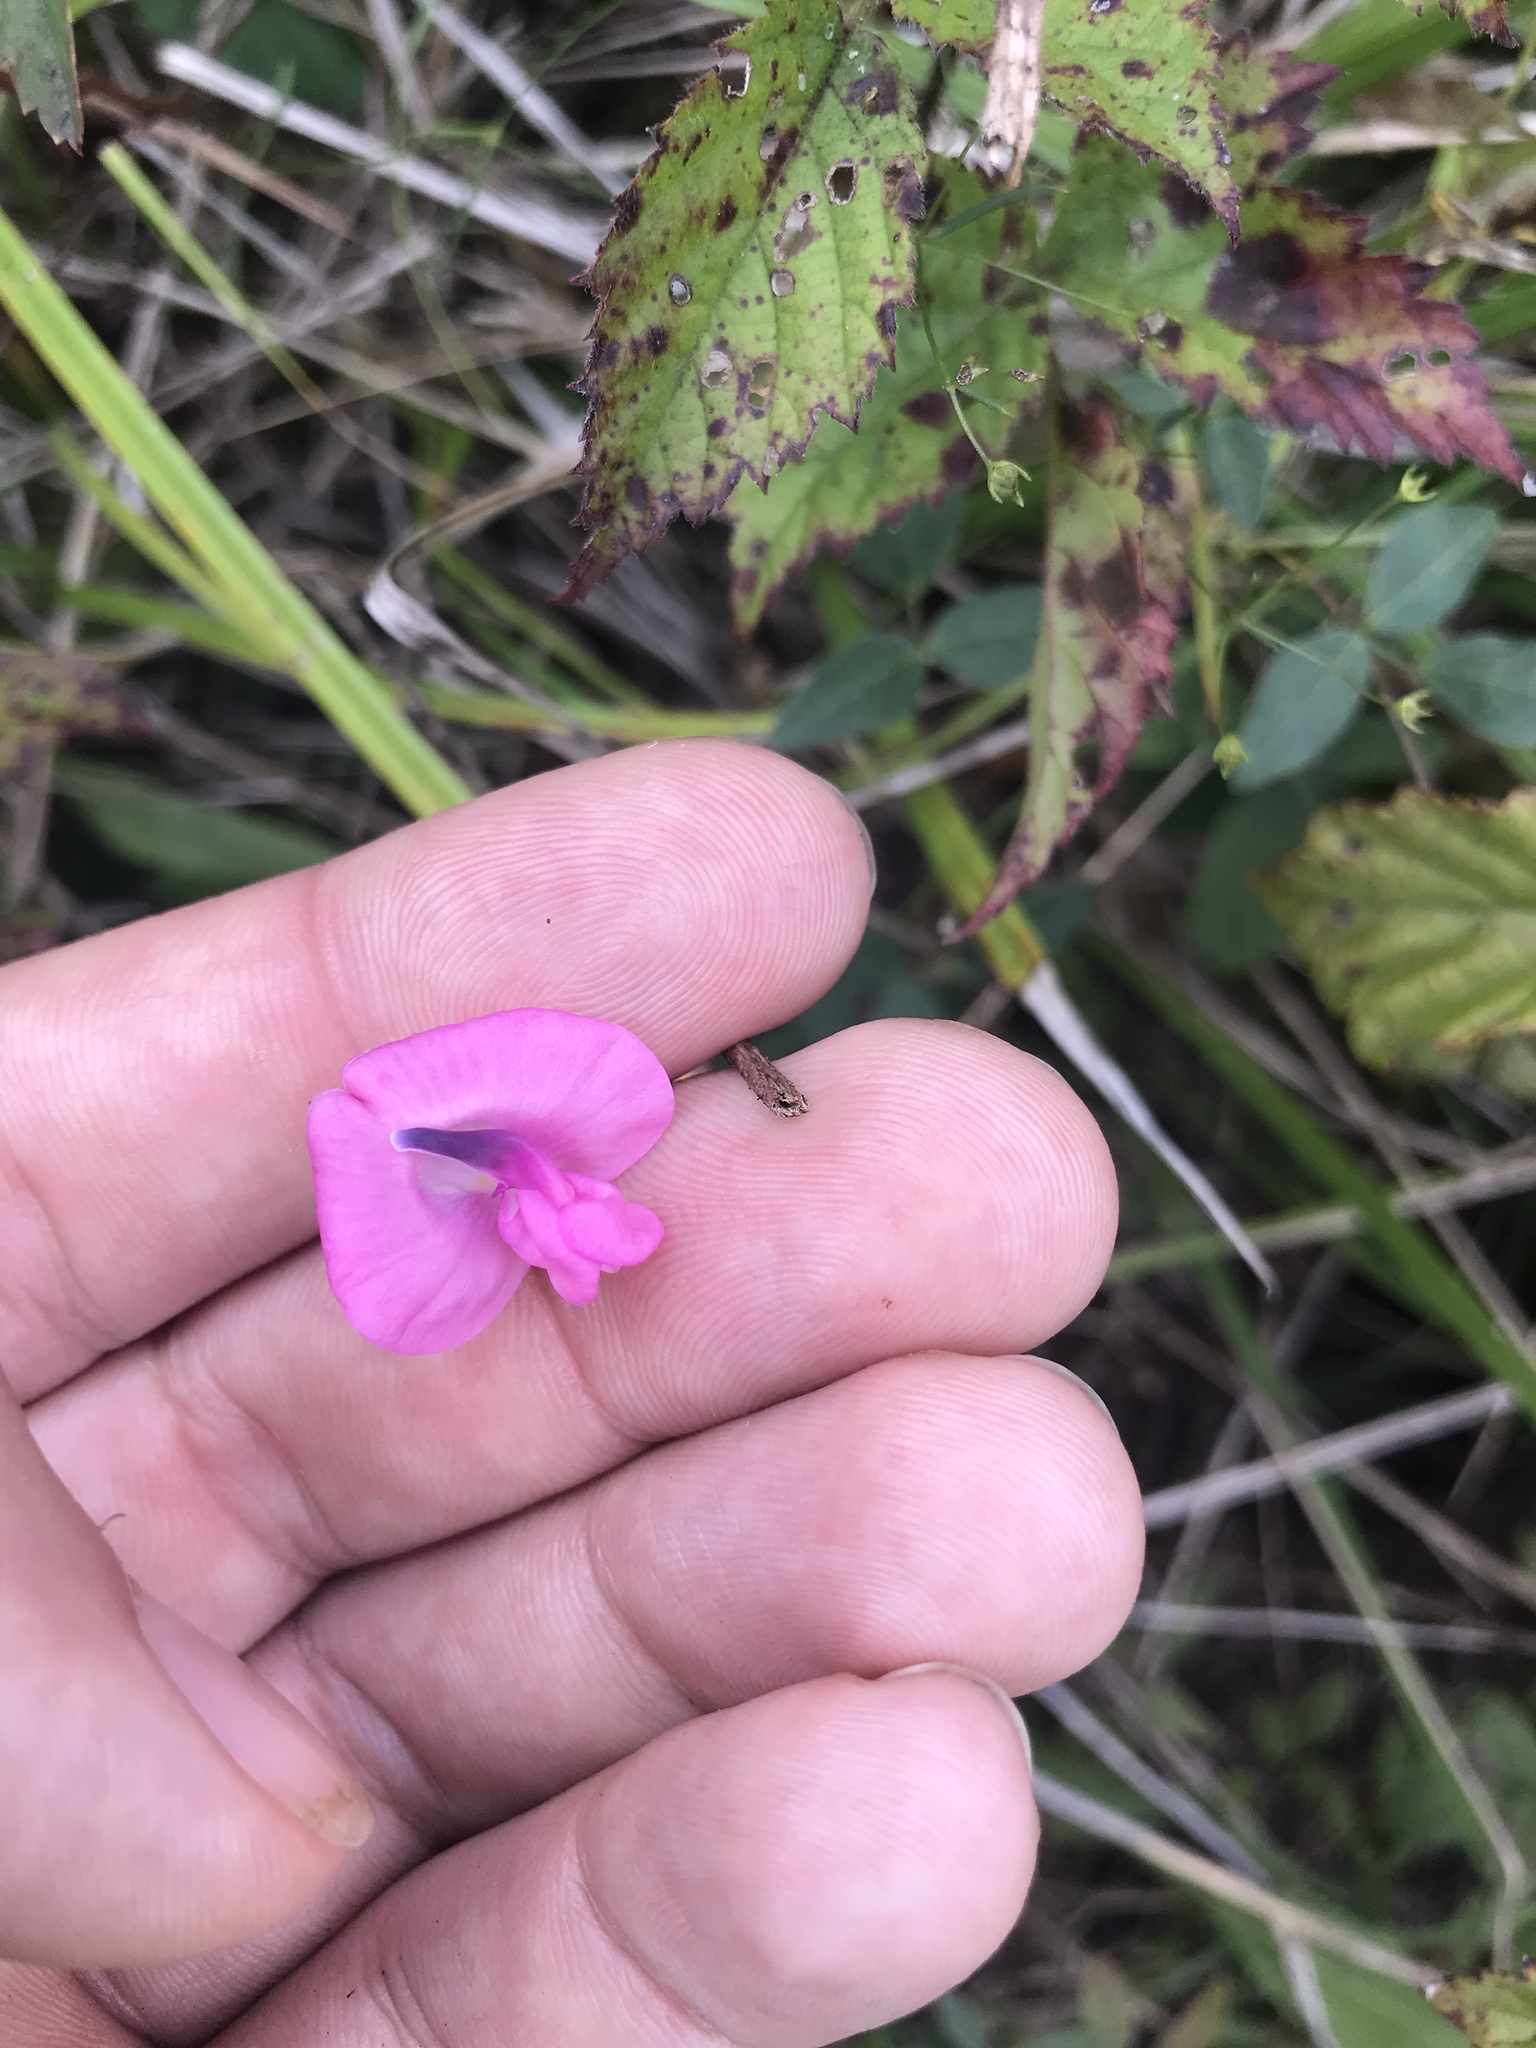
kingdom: Plantae
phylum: Tracheophyta
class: Magnoliopsida
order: Fabales
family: Fabaceae
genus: Strophostyles
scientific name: Strophostyles umbellata
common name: Perennial wild bean
